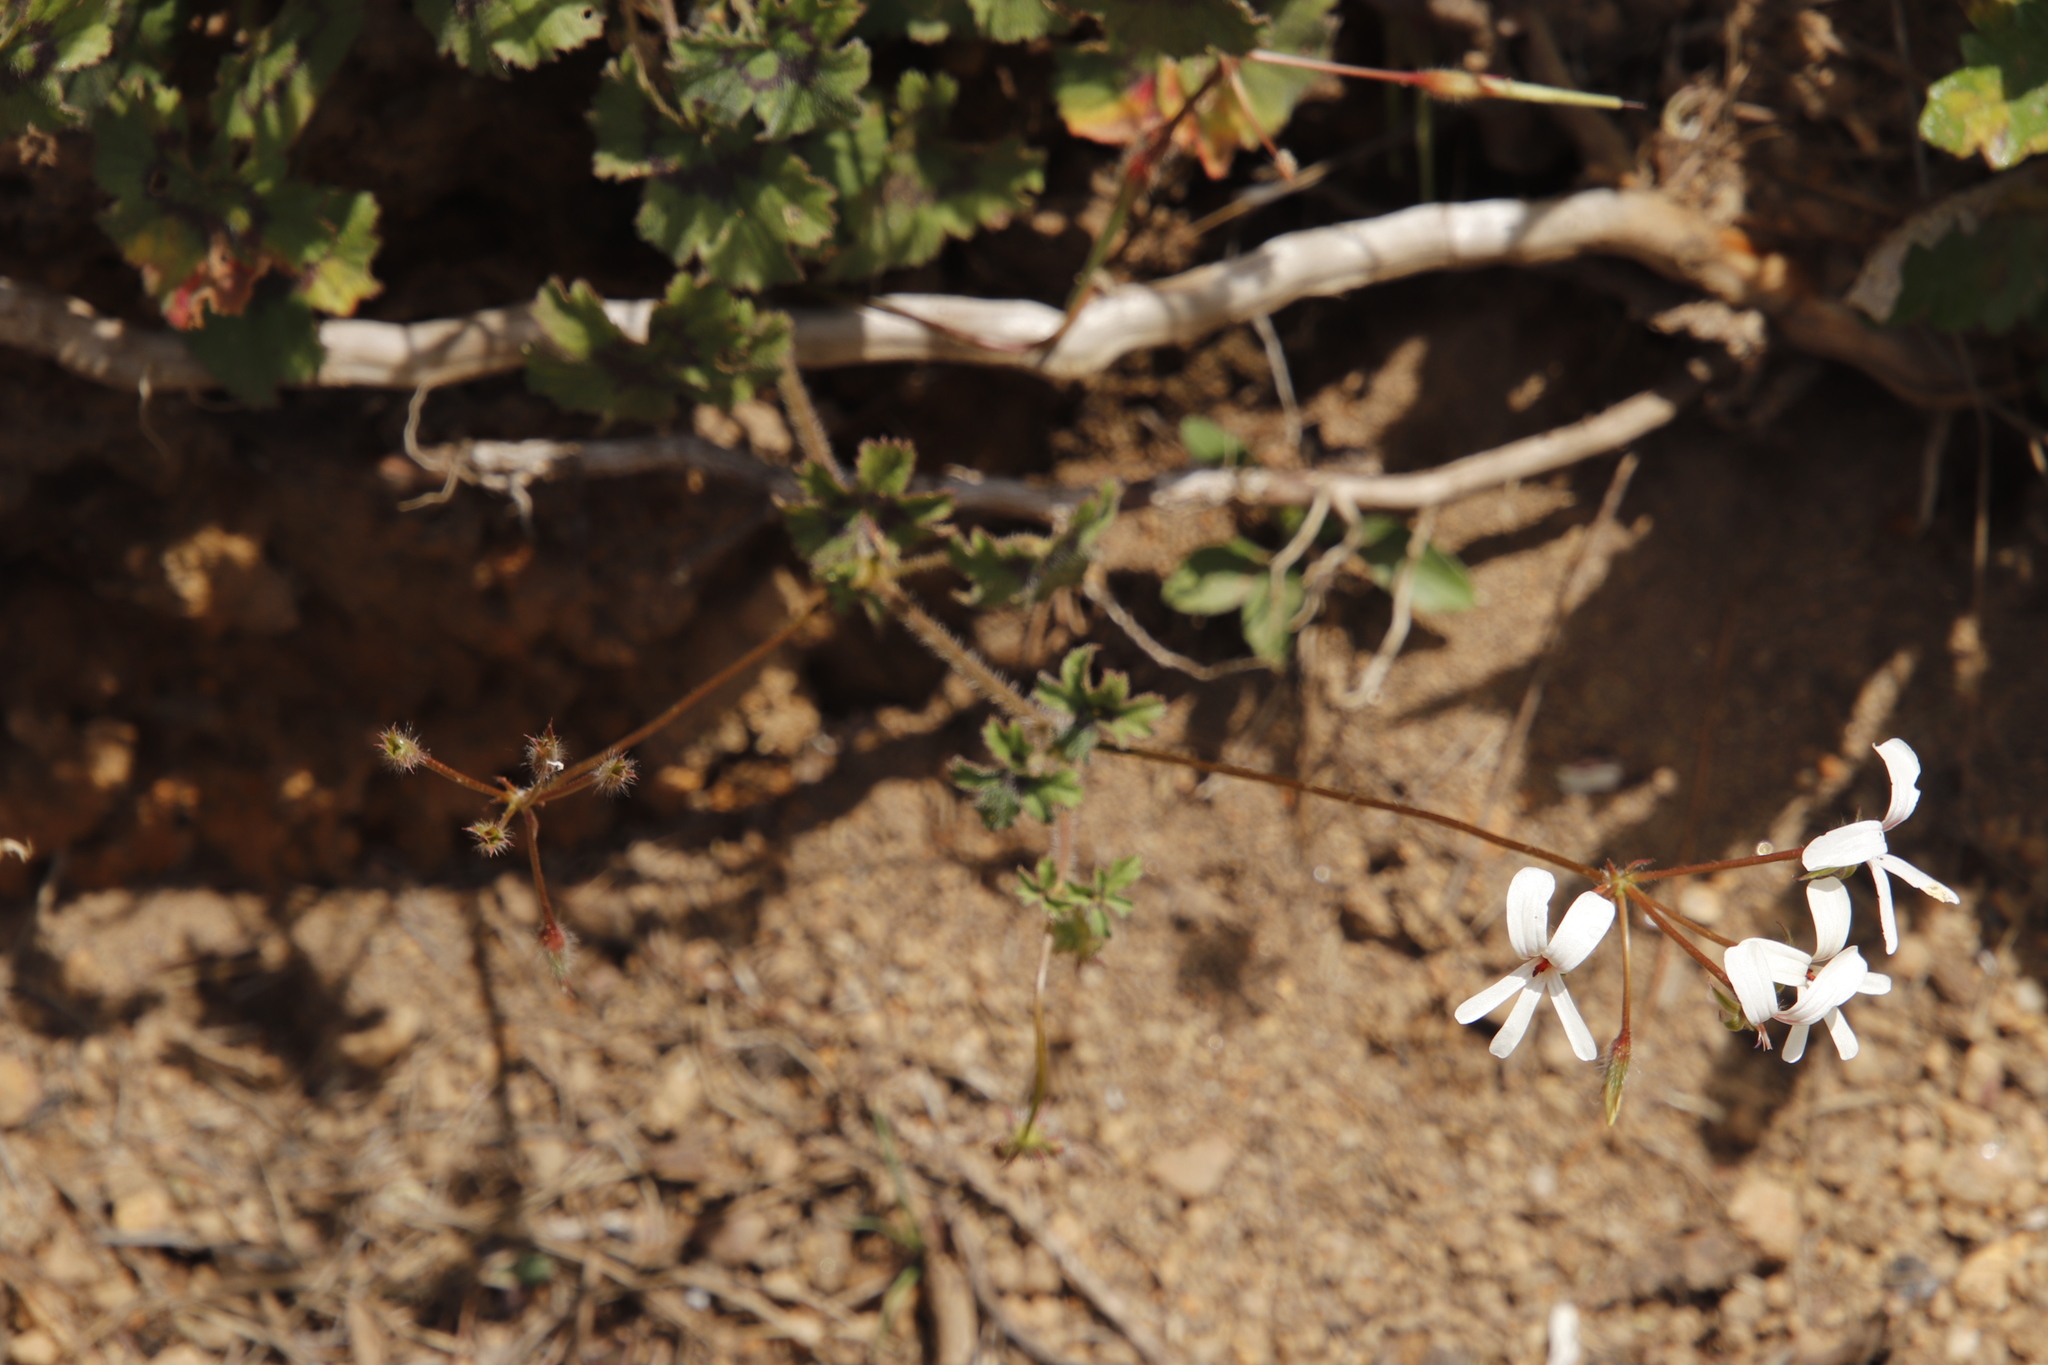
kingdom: Plantae
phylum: Tracheophyta
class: Magnoliopsida
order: Geraniales
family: Geraniaceae
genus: Pelargonium
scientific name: Pelargonium elongatum
